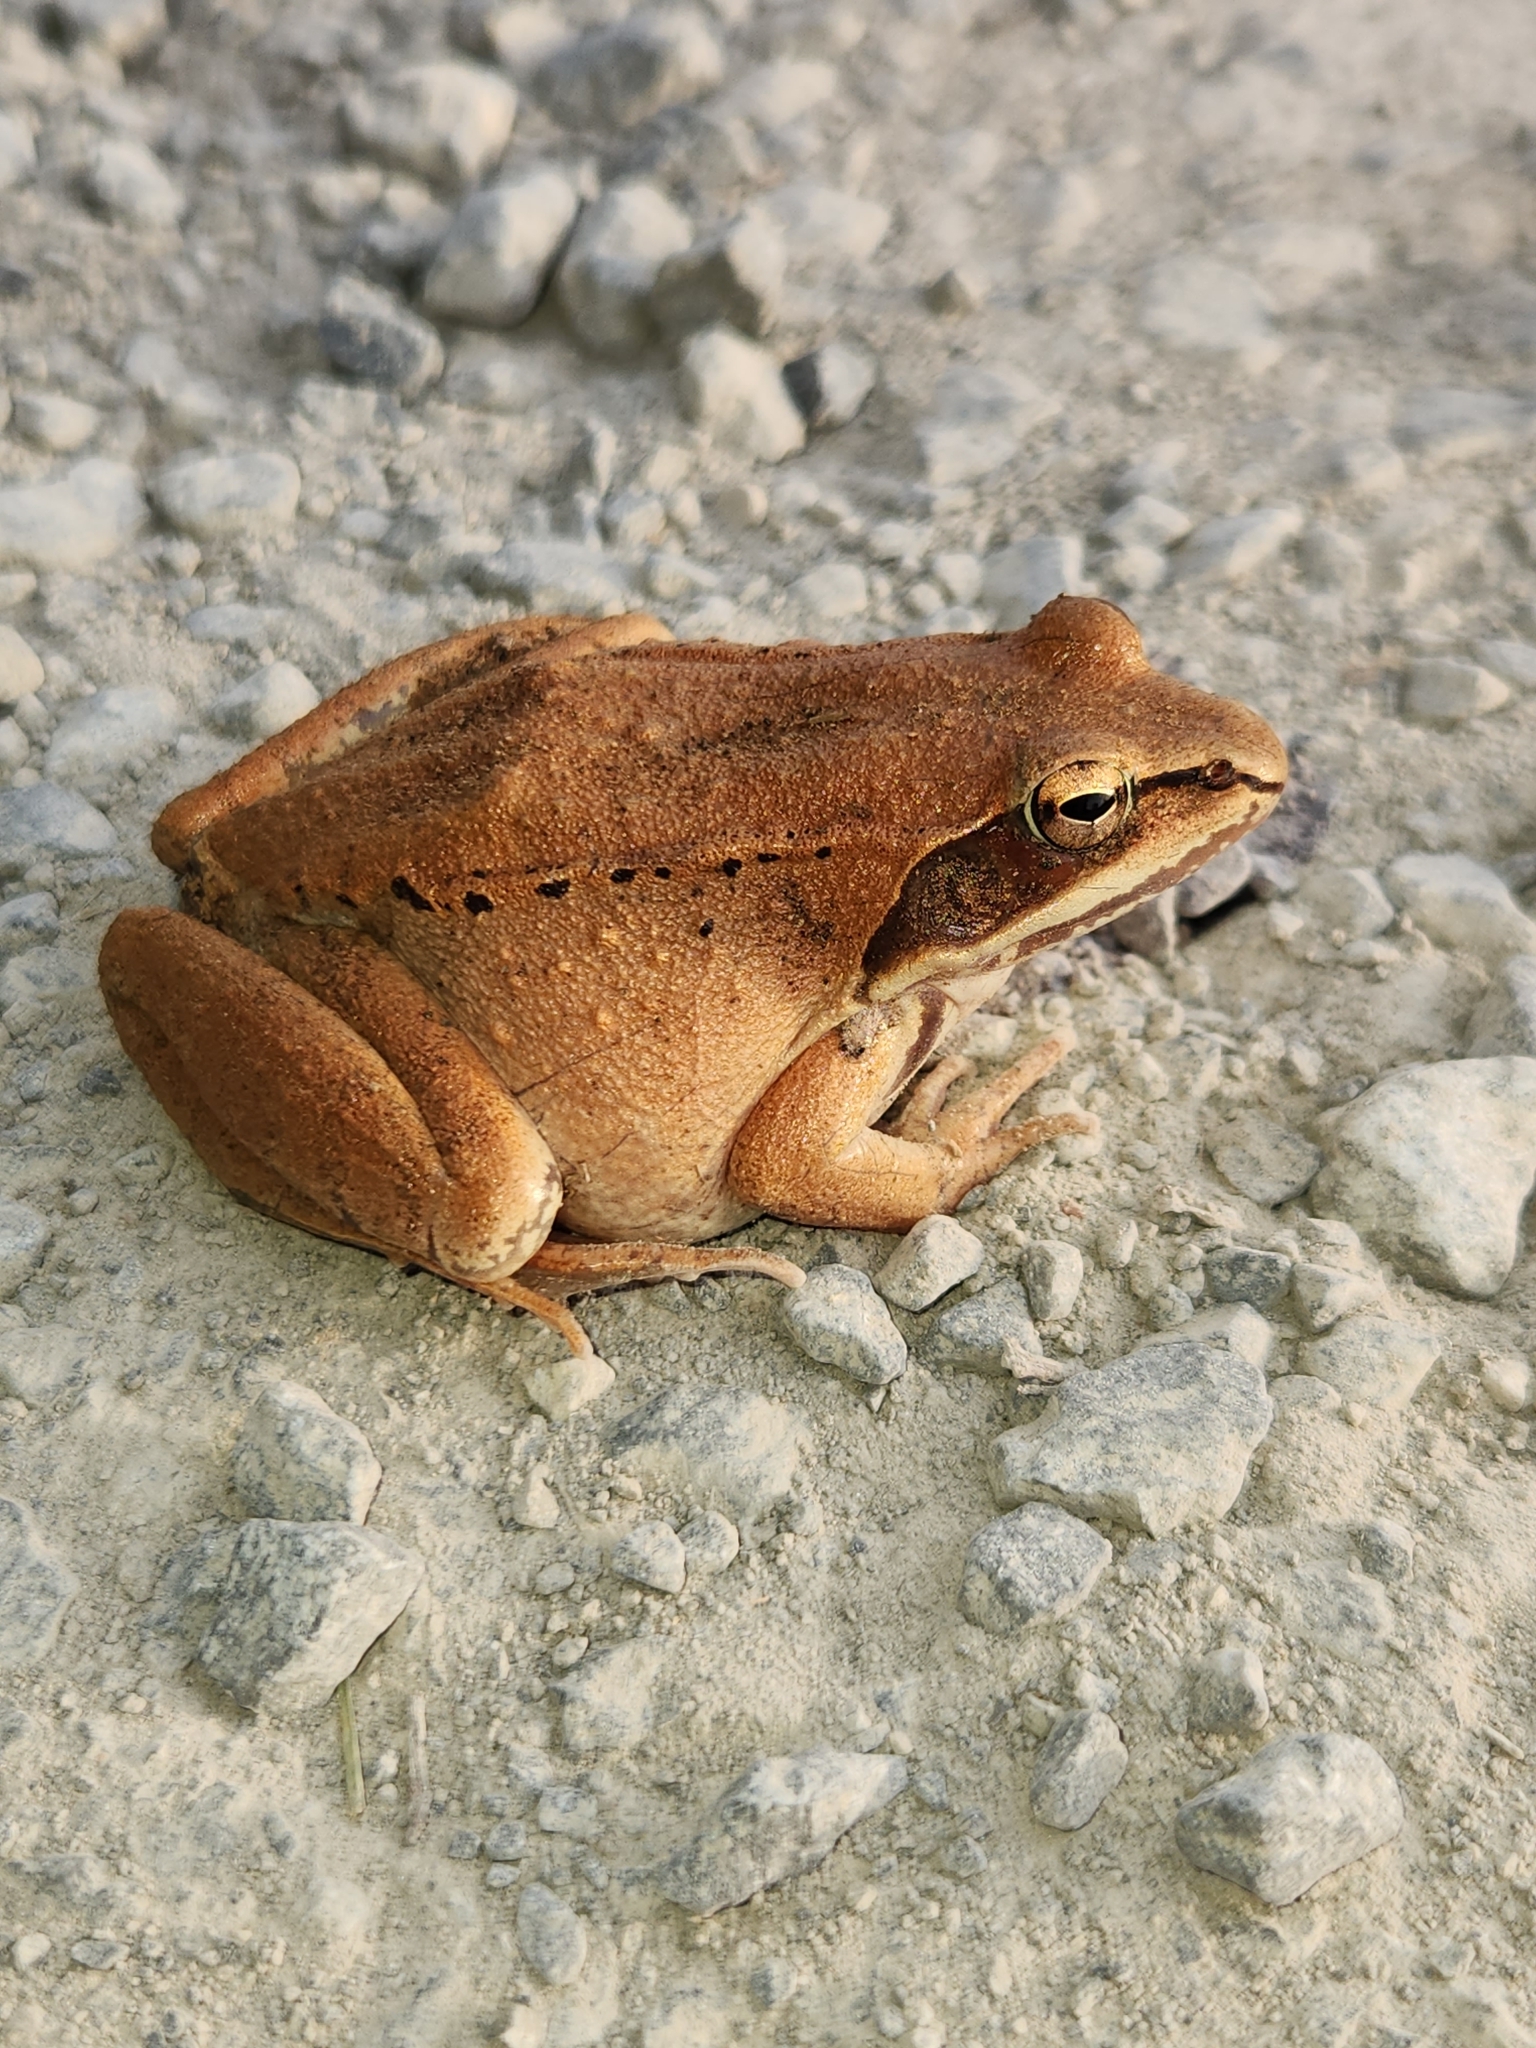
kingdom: Animalia
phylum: Chordata
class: Amphibia
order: Anura
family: Ranidae
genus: Lithobates
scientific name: Lithobates sylvaticus
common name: Wood frog
